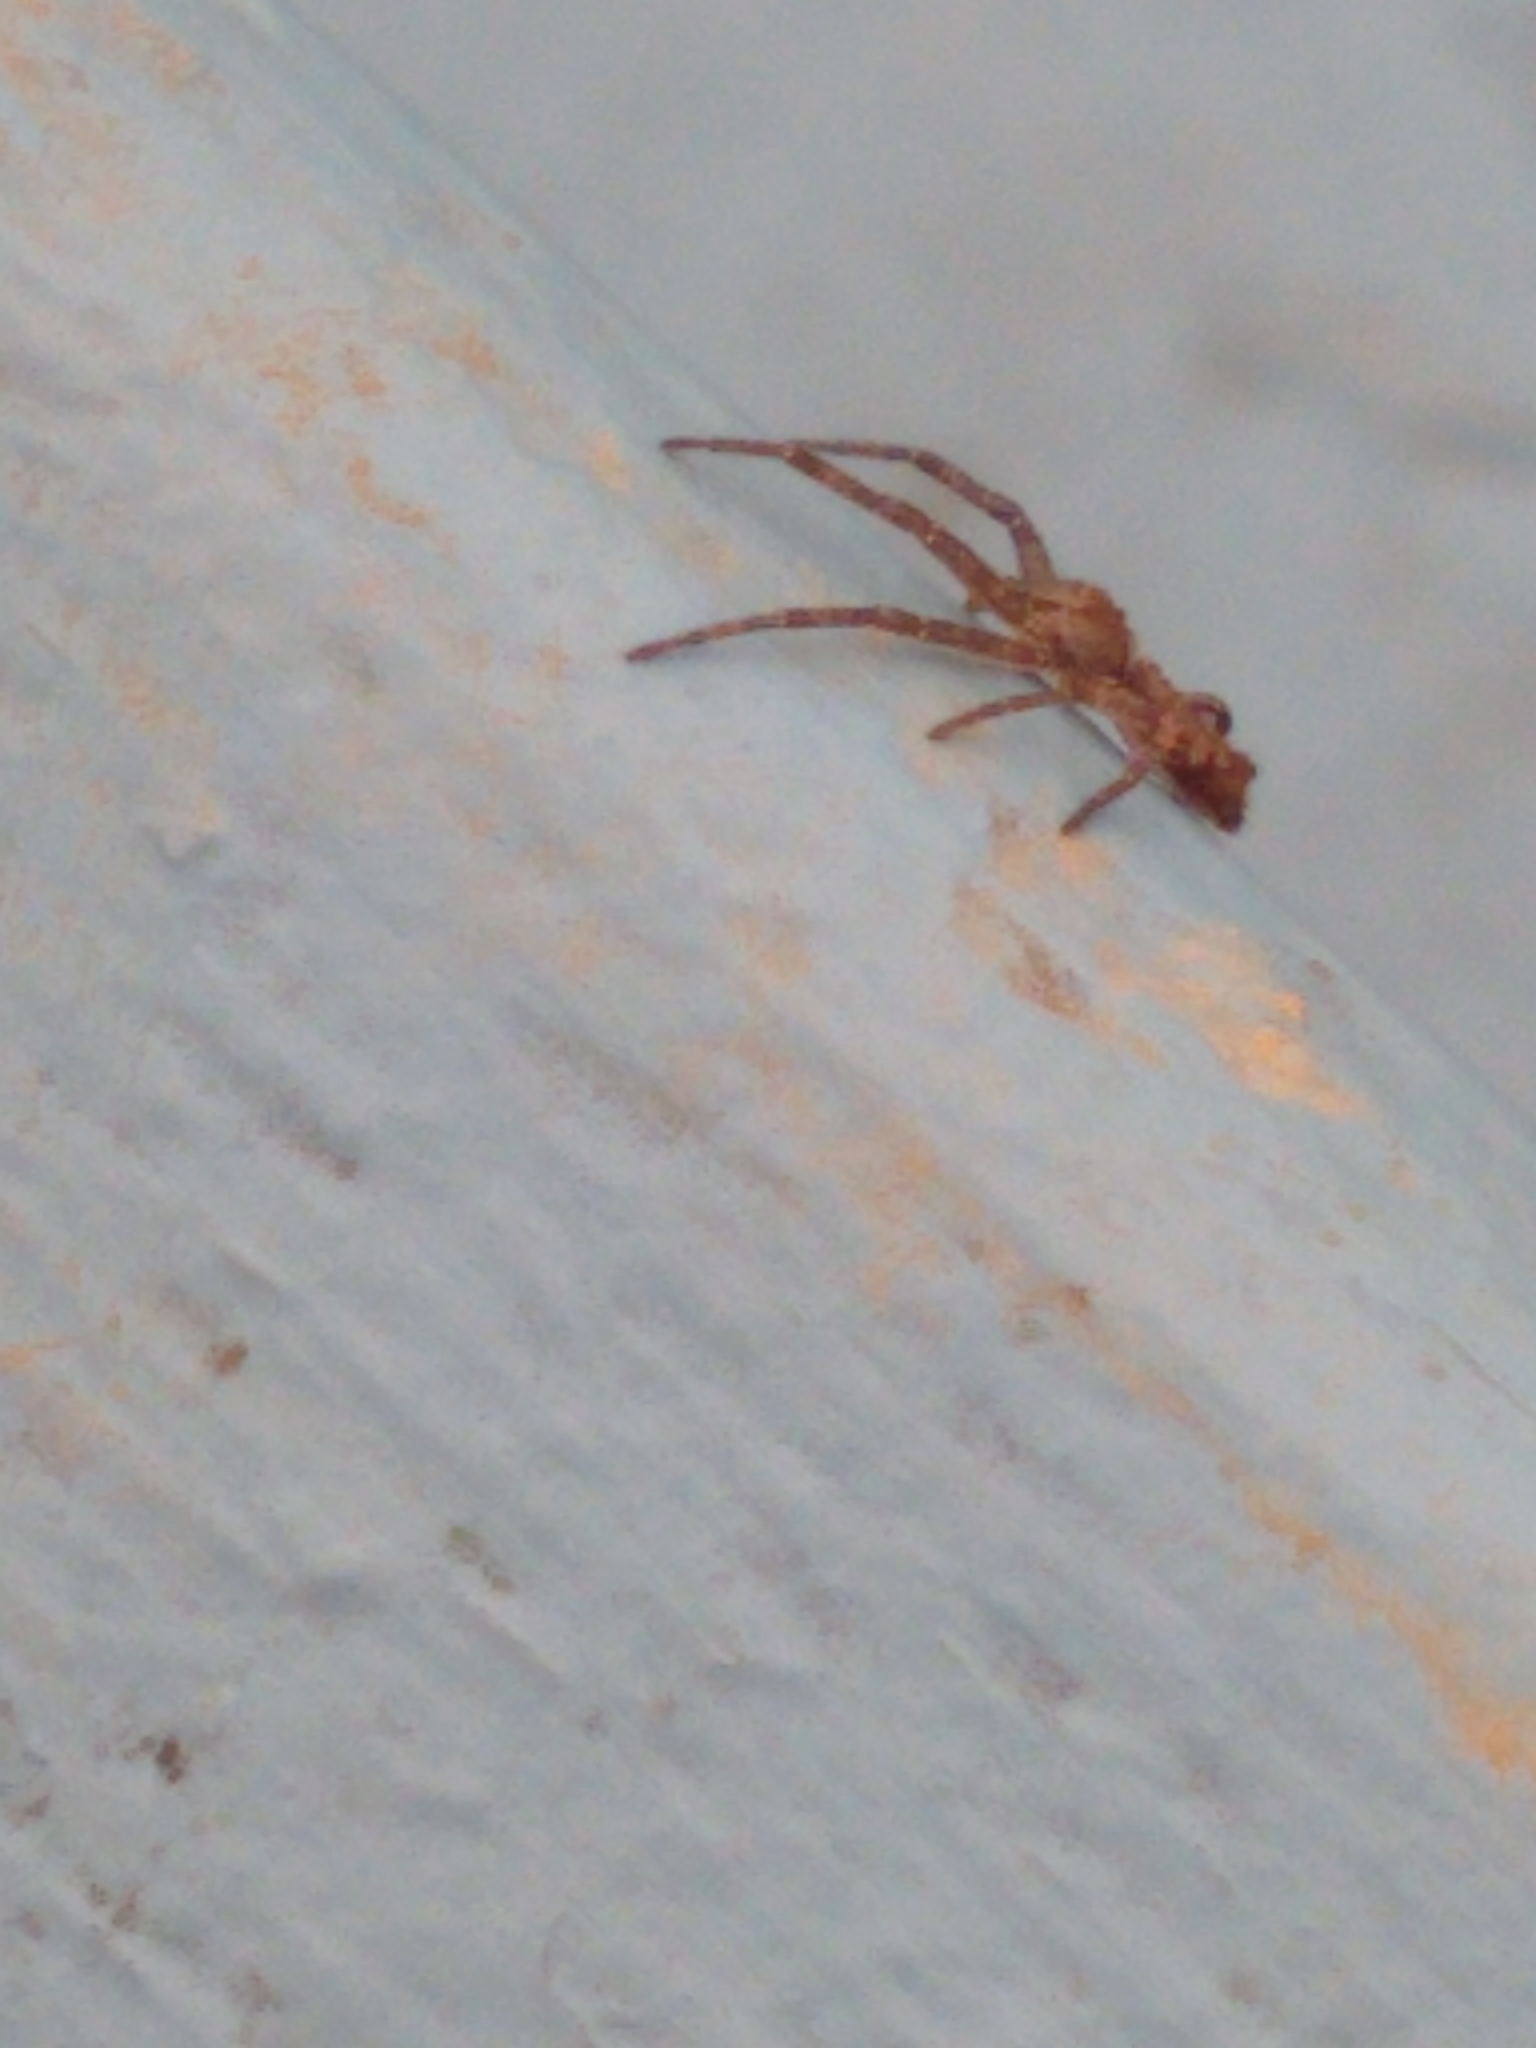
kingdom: Animalia
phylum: Arthropoda
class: Arachnida
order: Araneae
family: Thomisidae
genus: Tmarus
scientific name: Tmarus angulatus
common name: Tuberculated crab spider
